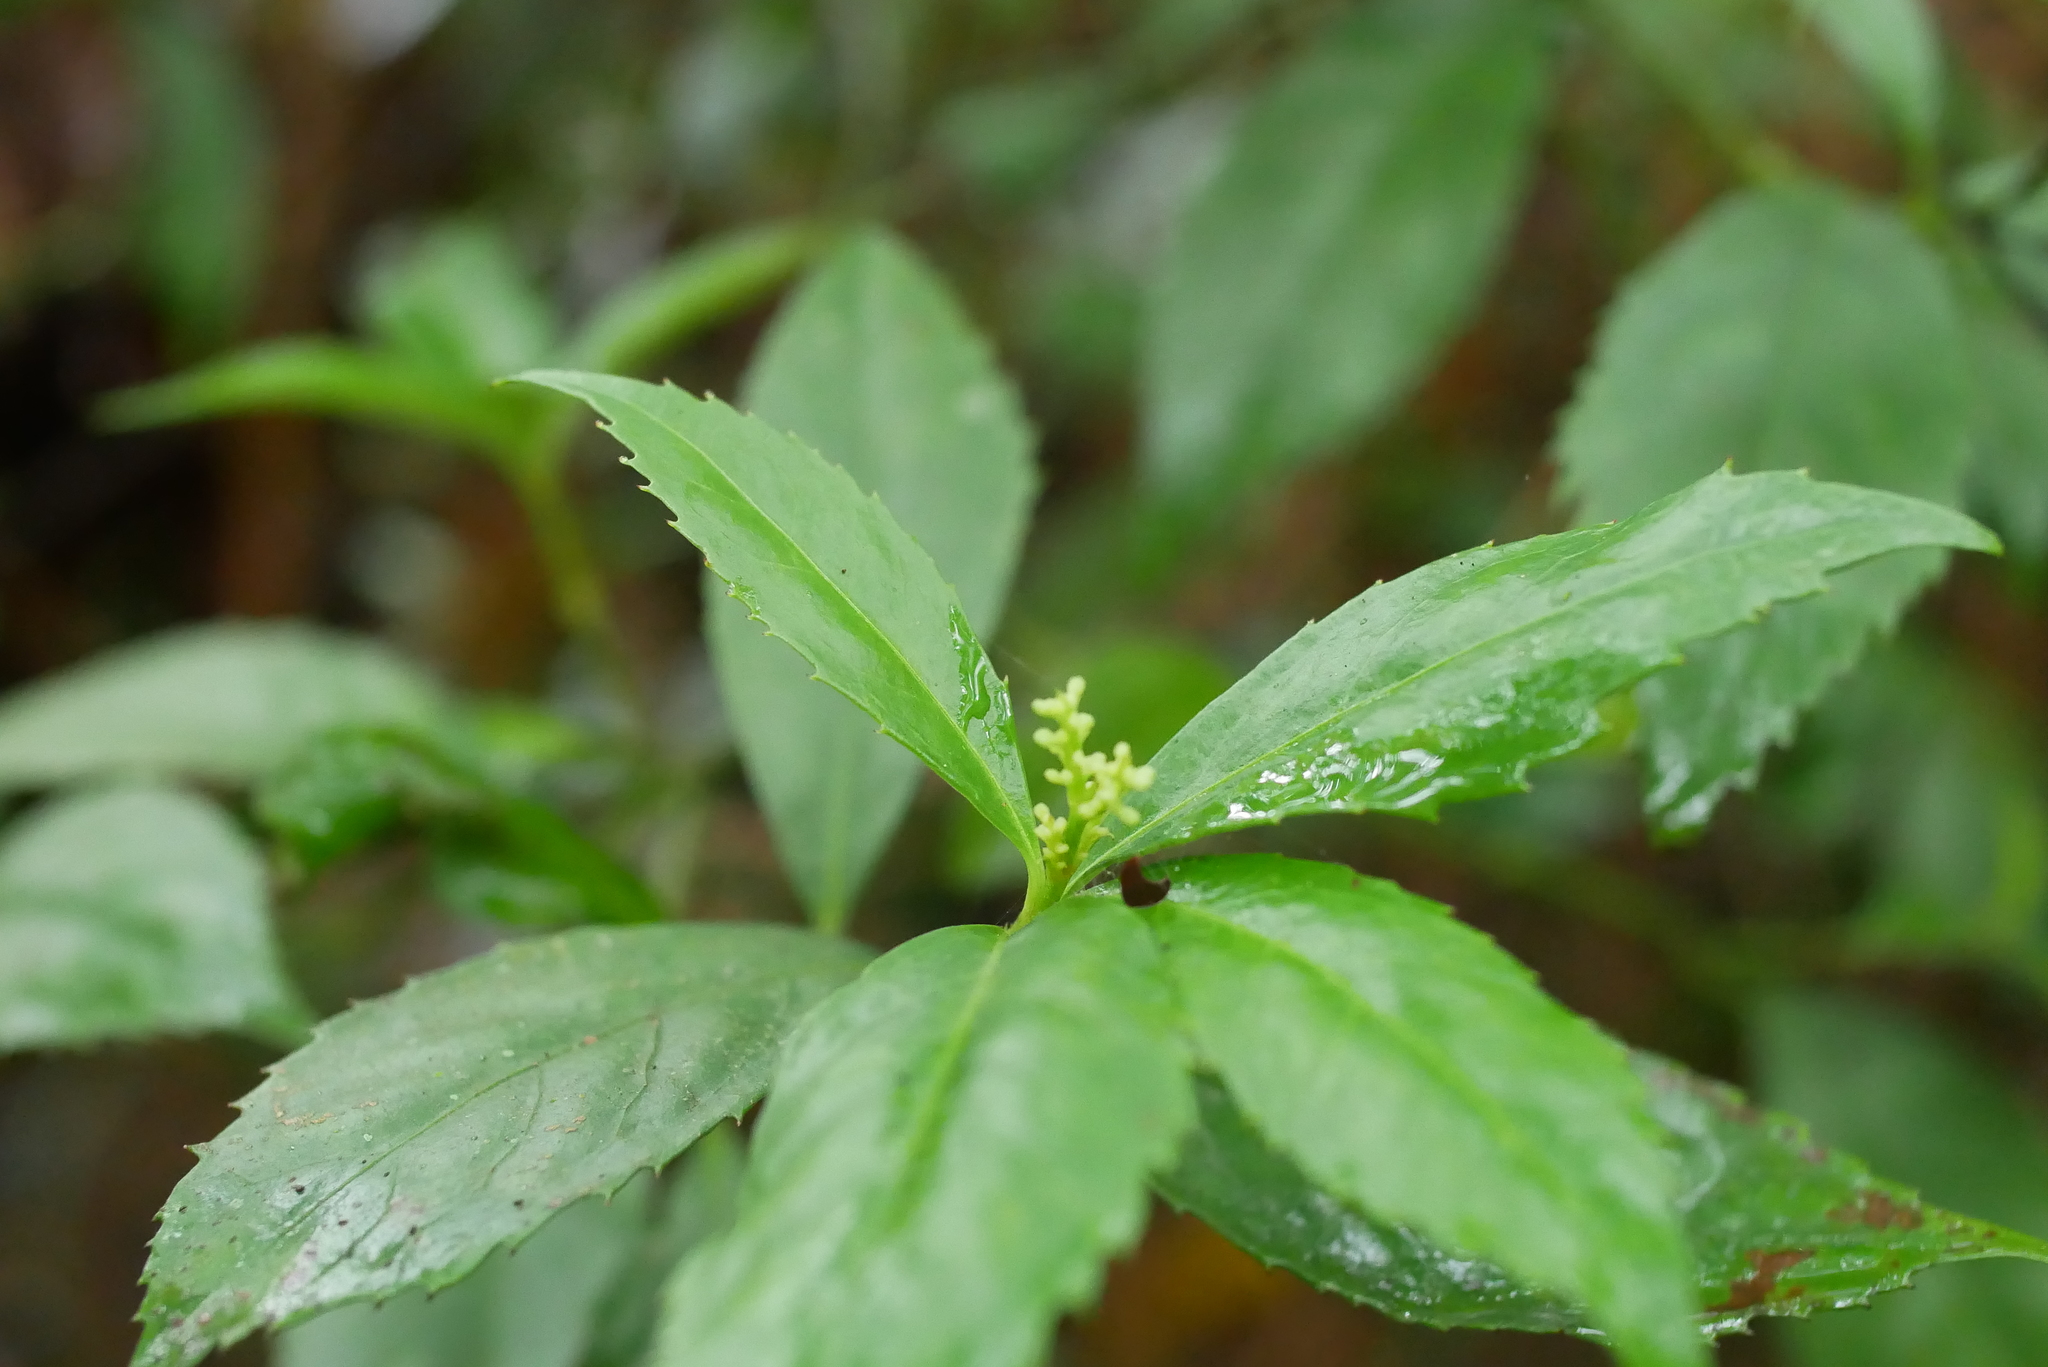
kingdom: Plantae
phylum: Tracheophyta
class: Magnoliopsida
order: Chloranthales
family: Chloranthaceae
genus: Sarcandra
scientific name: Sarcandra glabra
